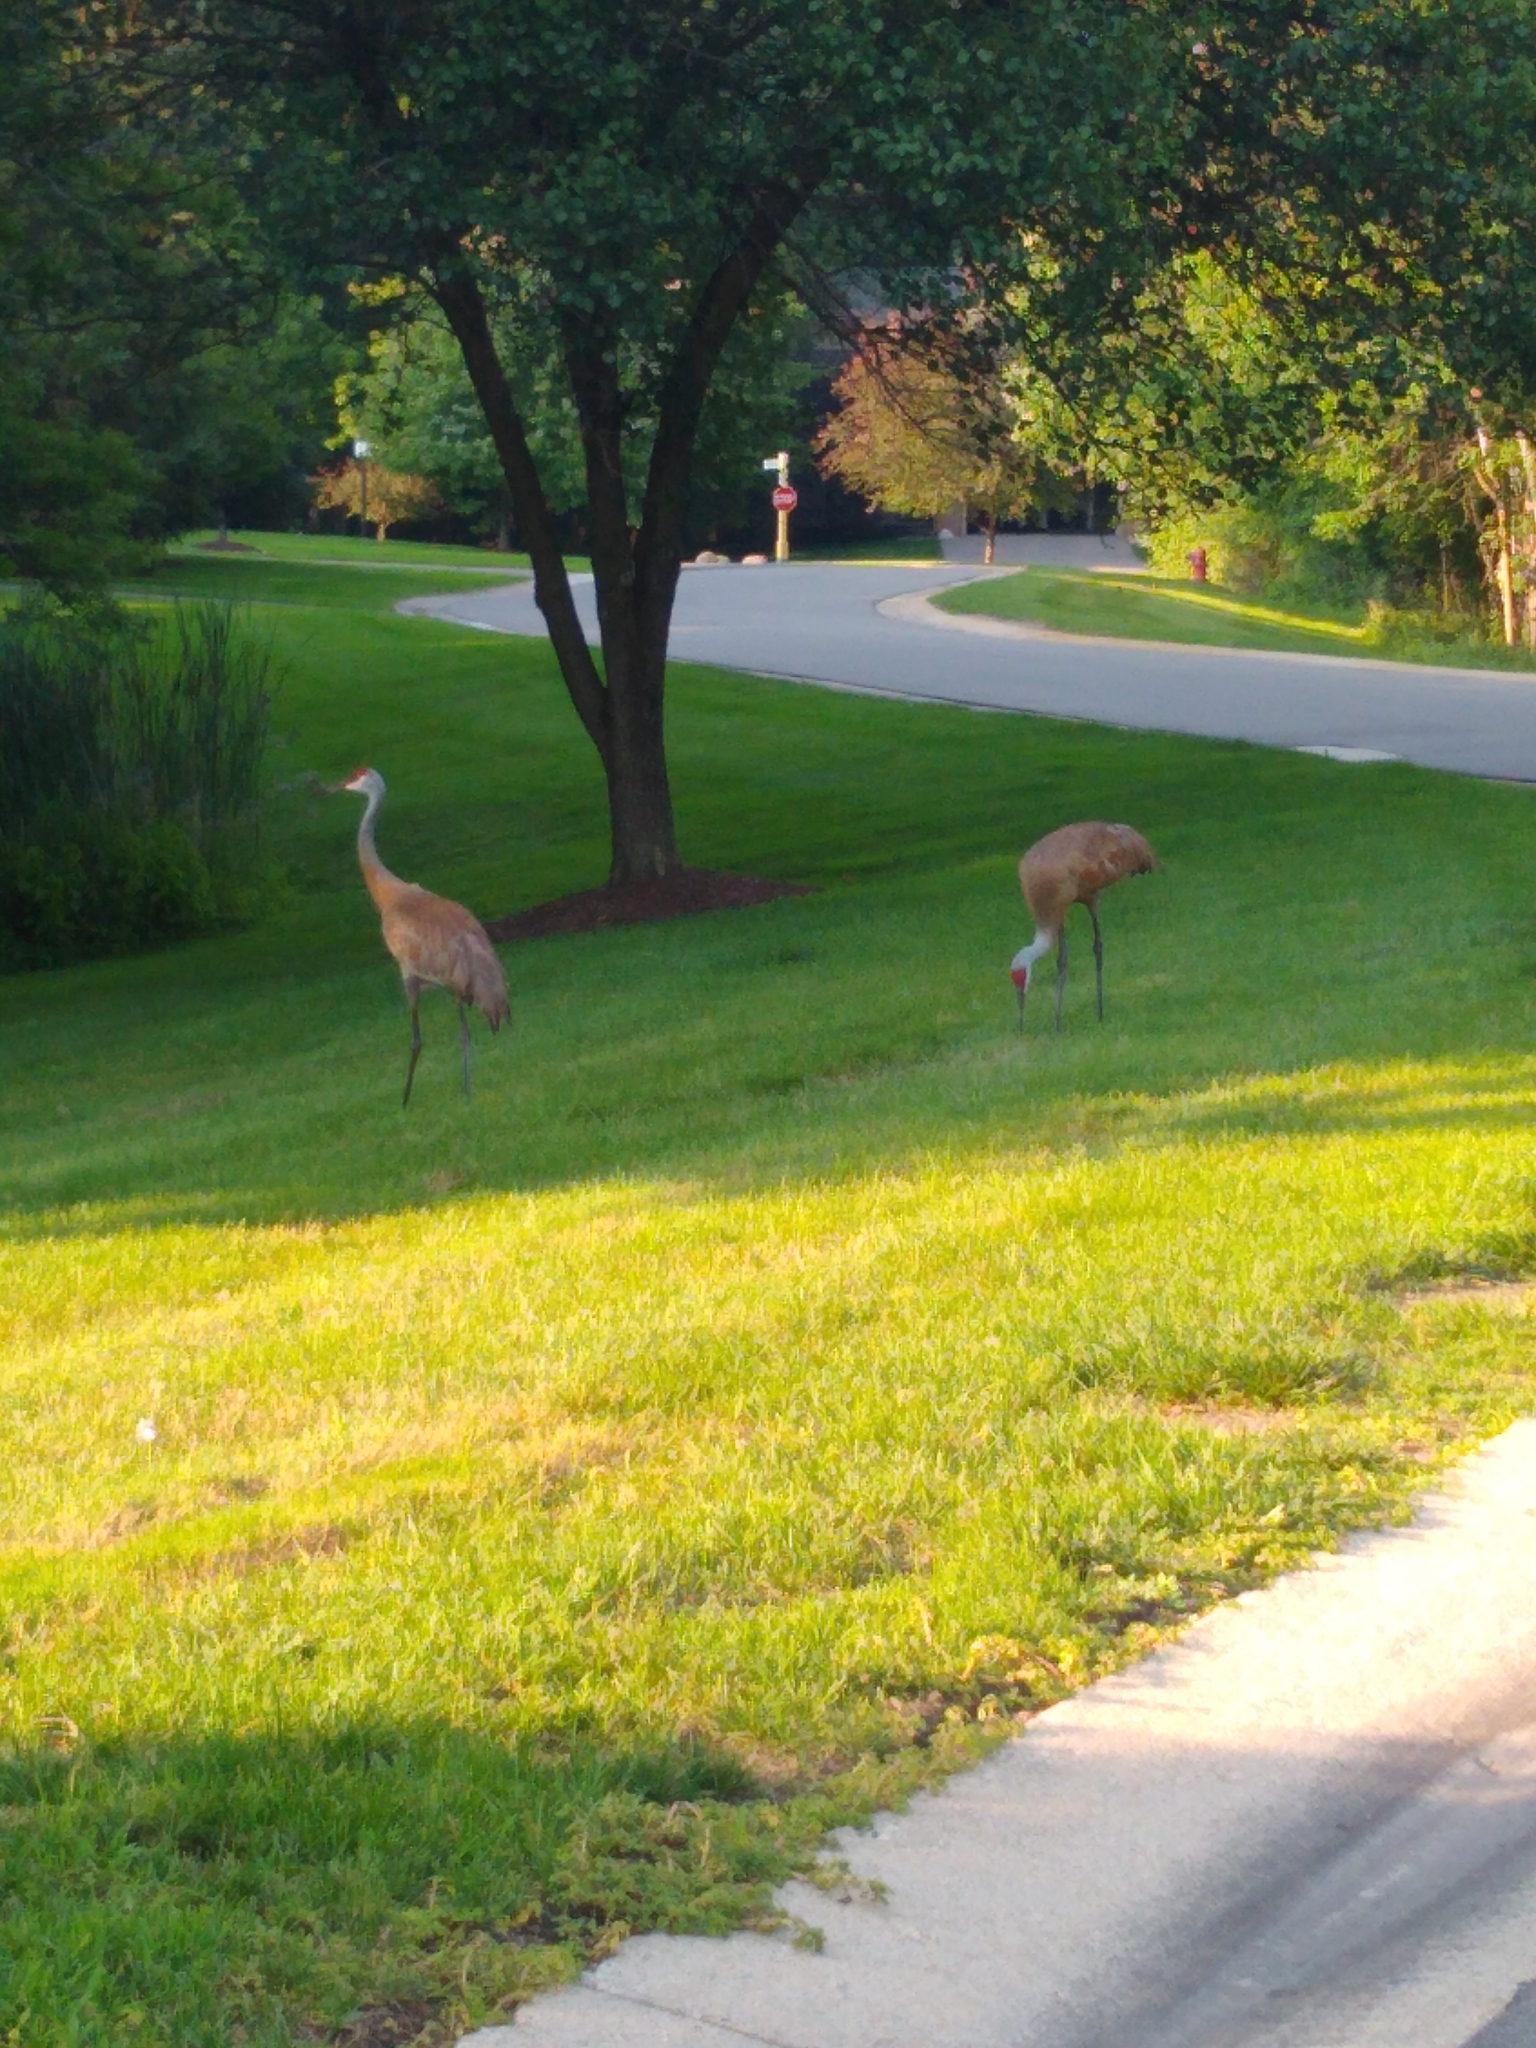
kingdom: Animalia
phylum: Chordata
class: Aves
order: Gruiformes
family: Gruidae
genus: Grus
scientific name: Grus canadensis
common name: Sandhill crane
